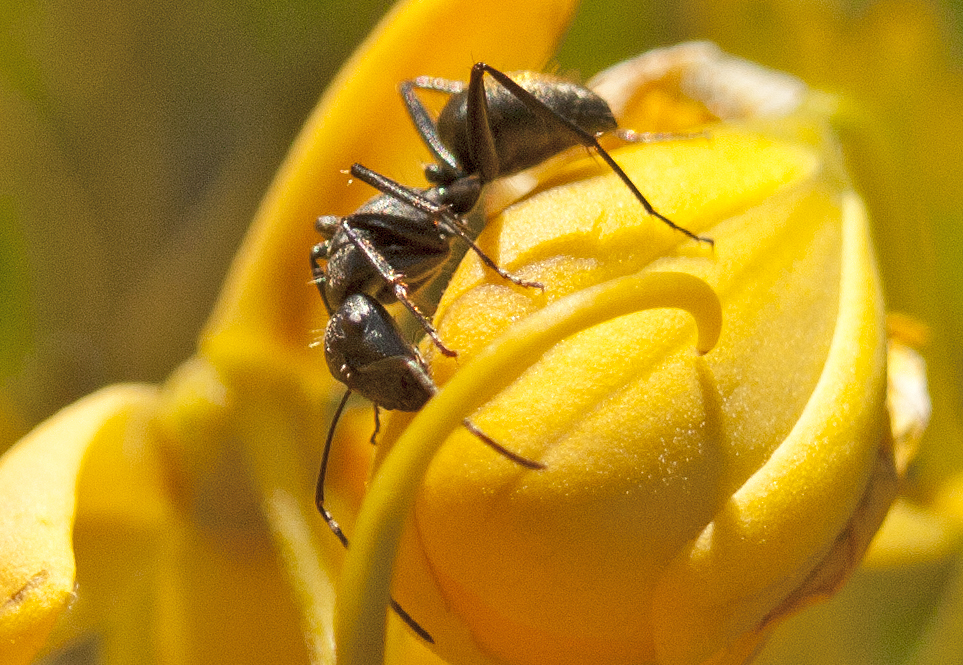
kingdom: Animalia
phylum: Arthropoda
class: Insecta
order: Hymenoptera
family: Formicidae
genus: Camponotus
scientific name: Camponotus aeneopilosus
